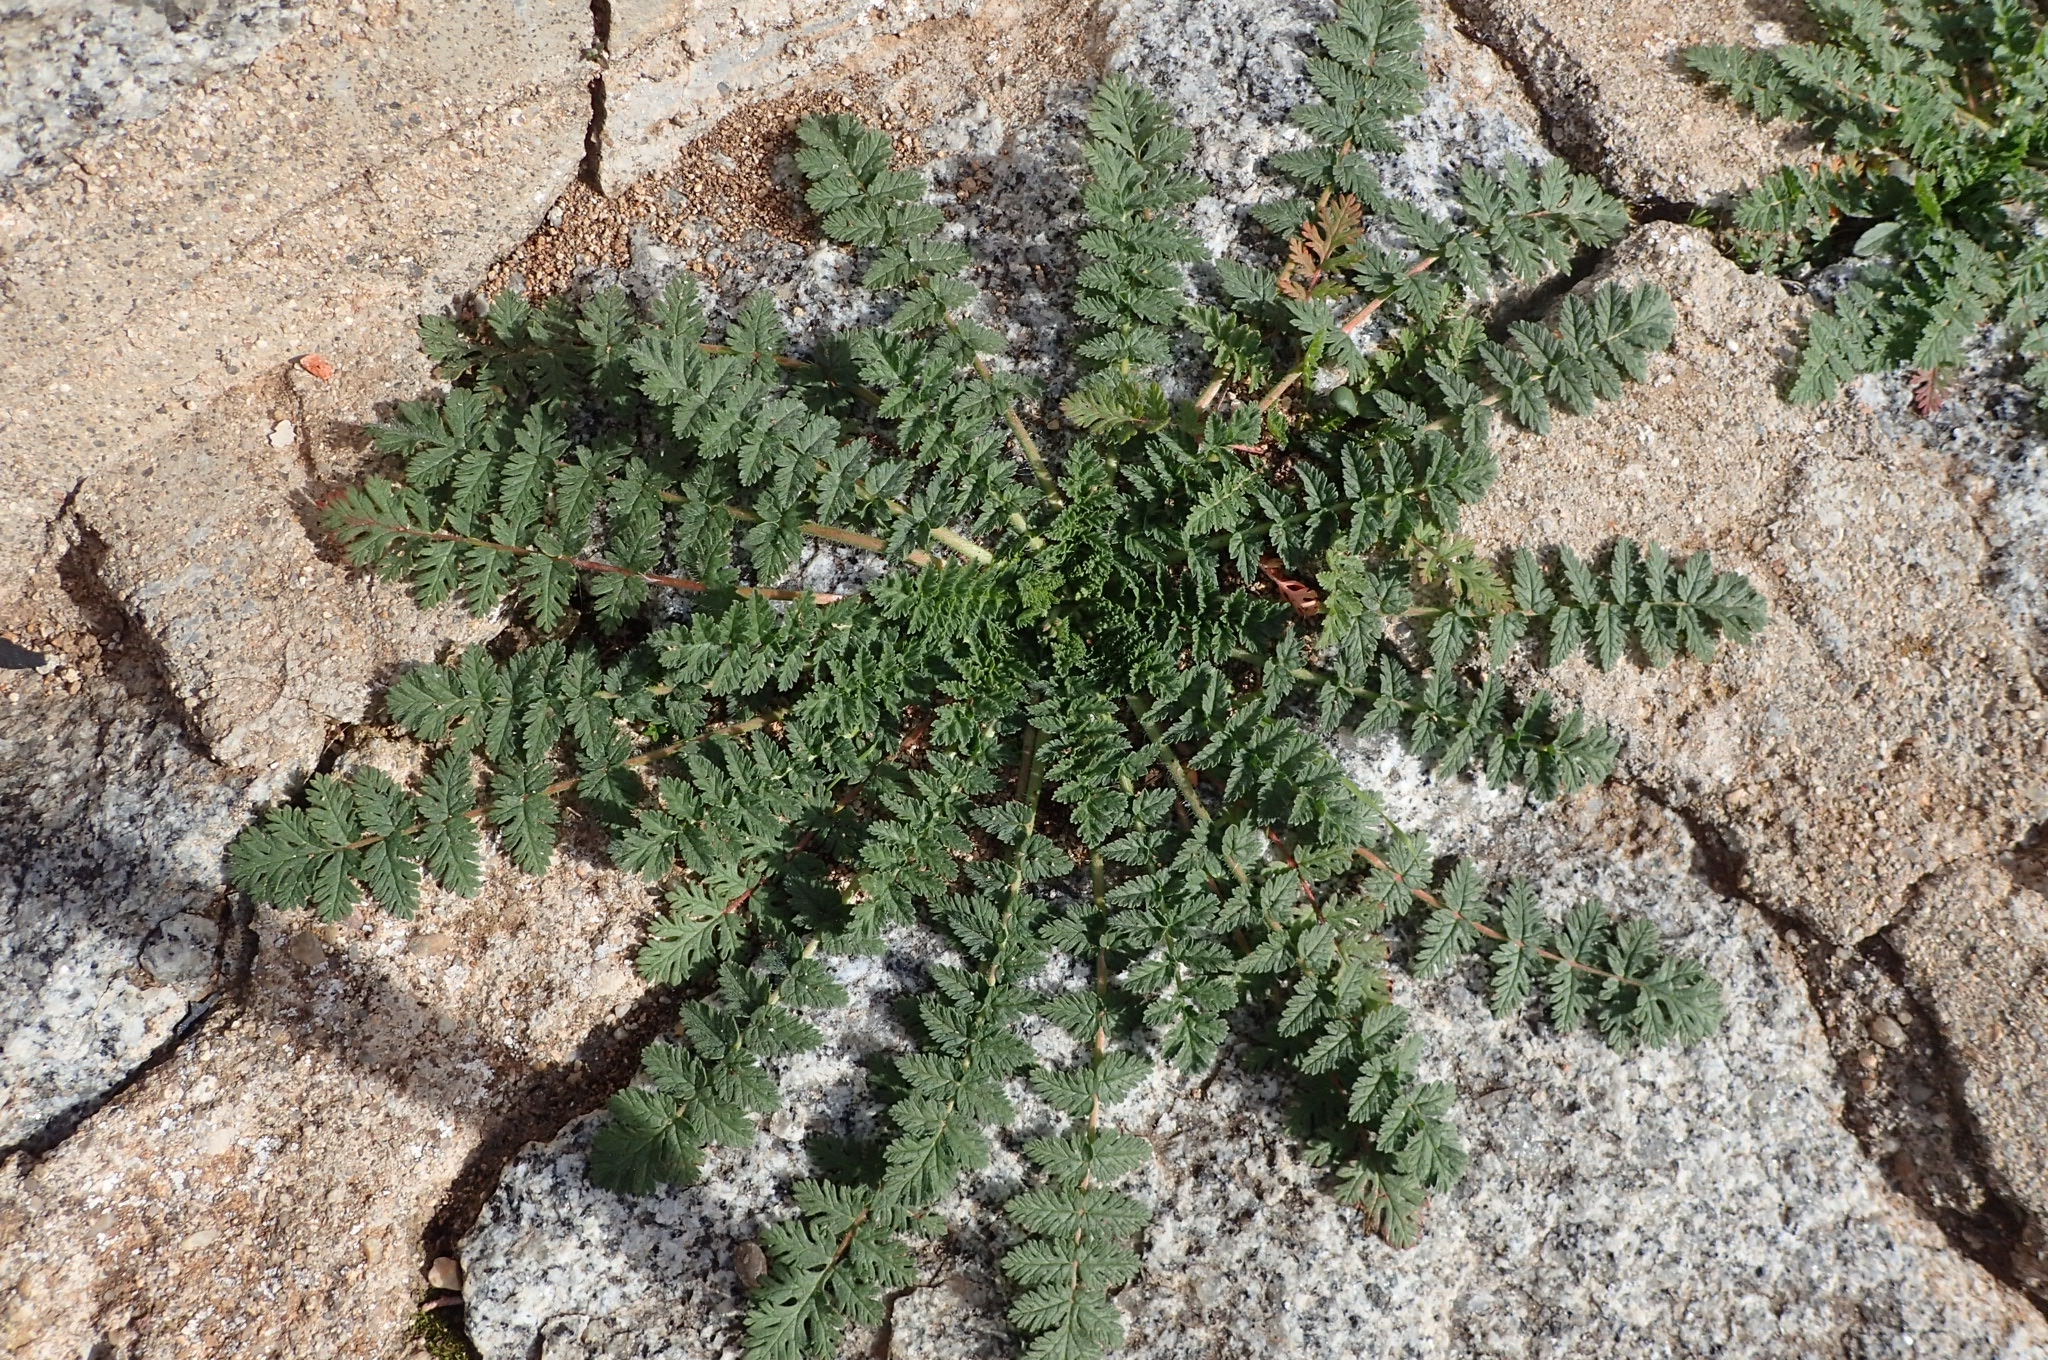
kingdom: Plantae
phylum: Tracheophyta
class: Magnoliopsida
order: Geraniales
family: Geraniaceae
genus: Erodium
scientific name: Erodium cicutarium
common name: Common stork's-bill
